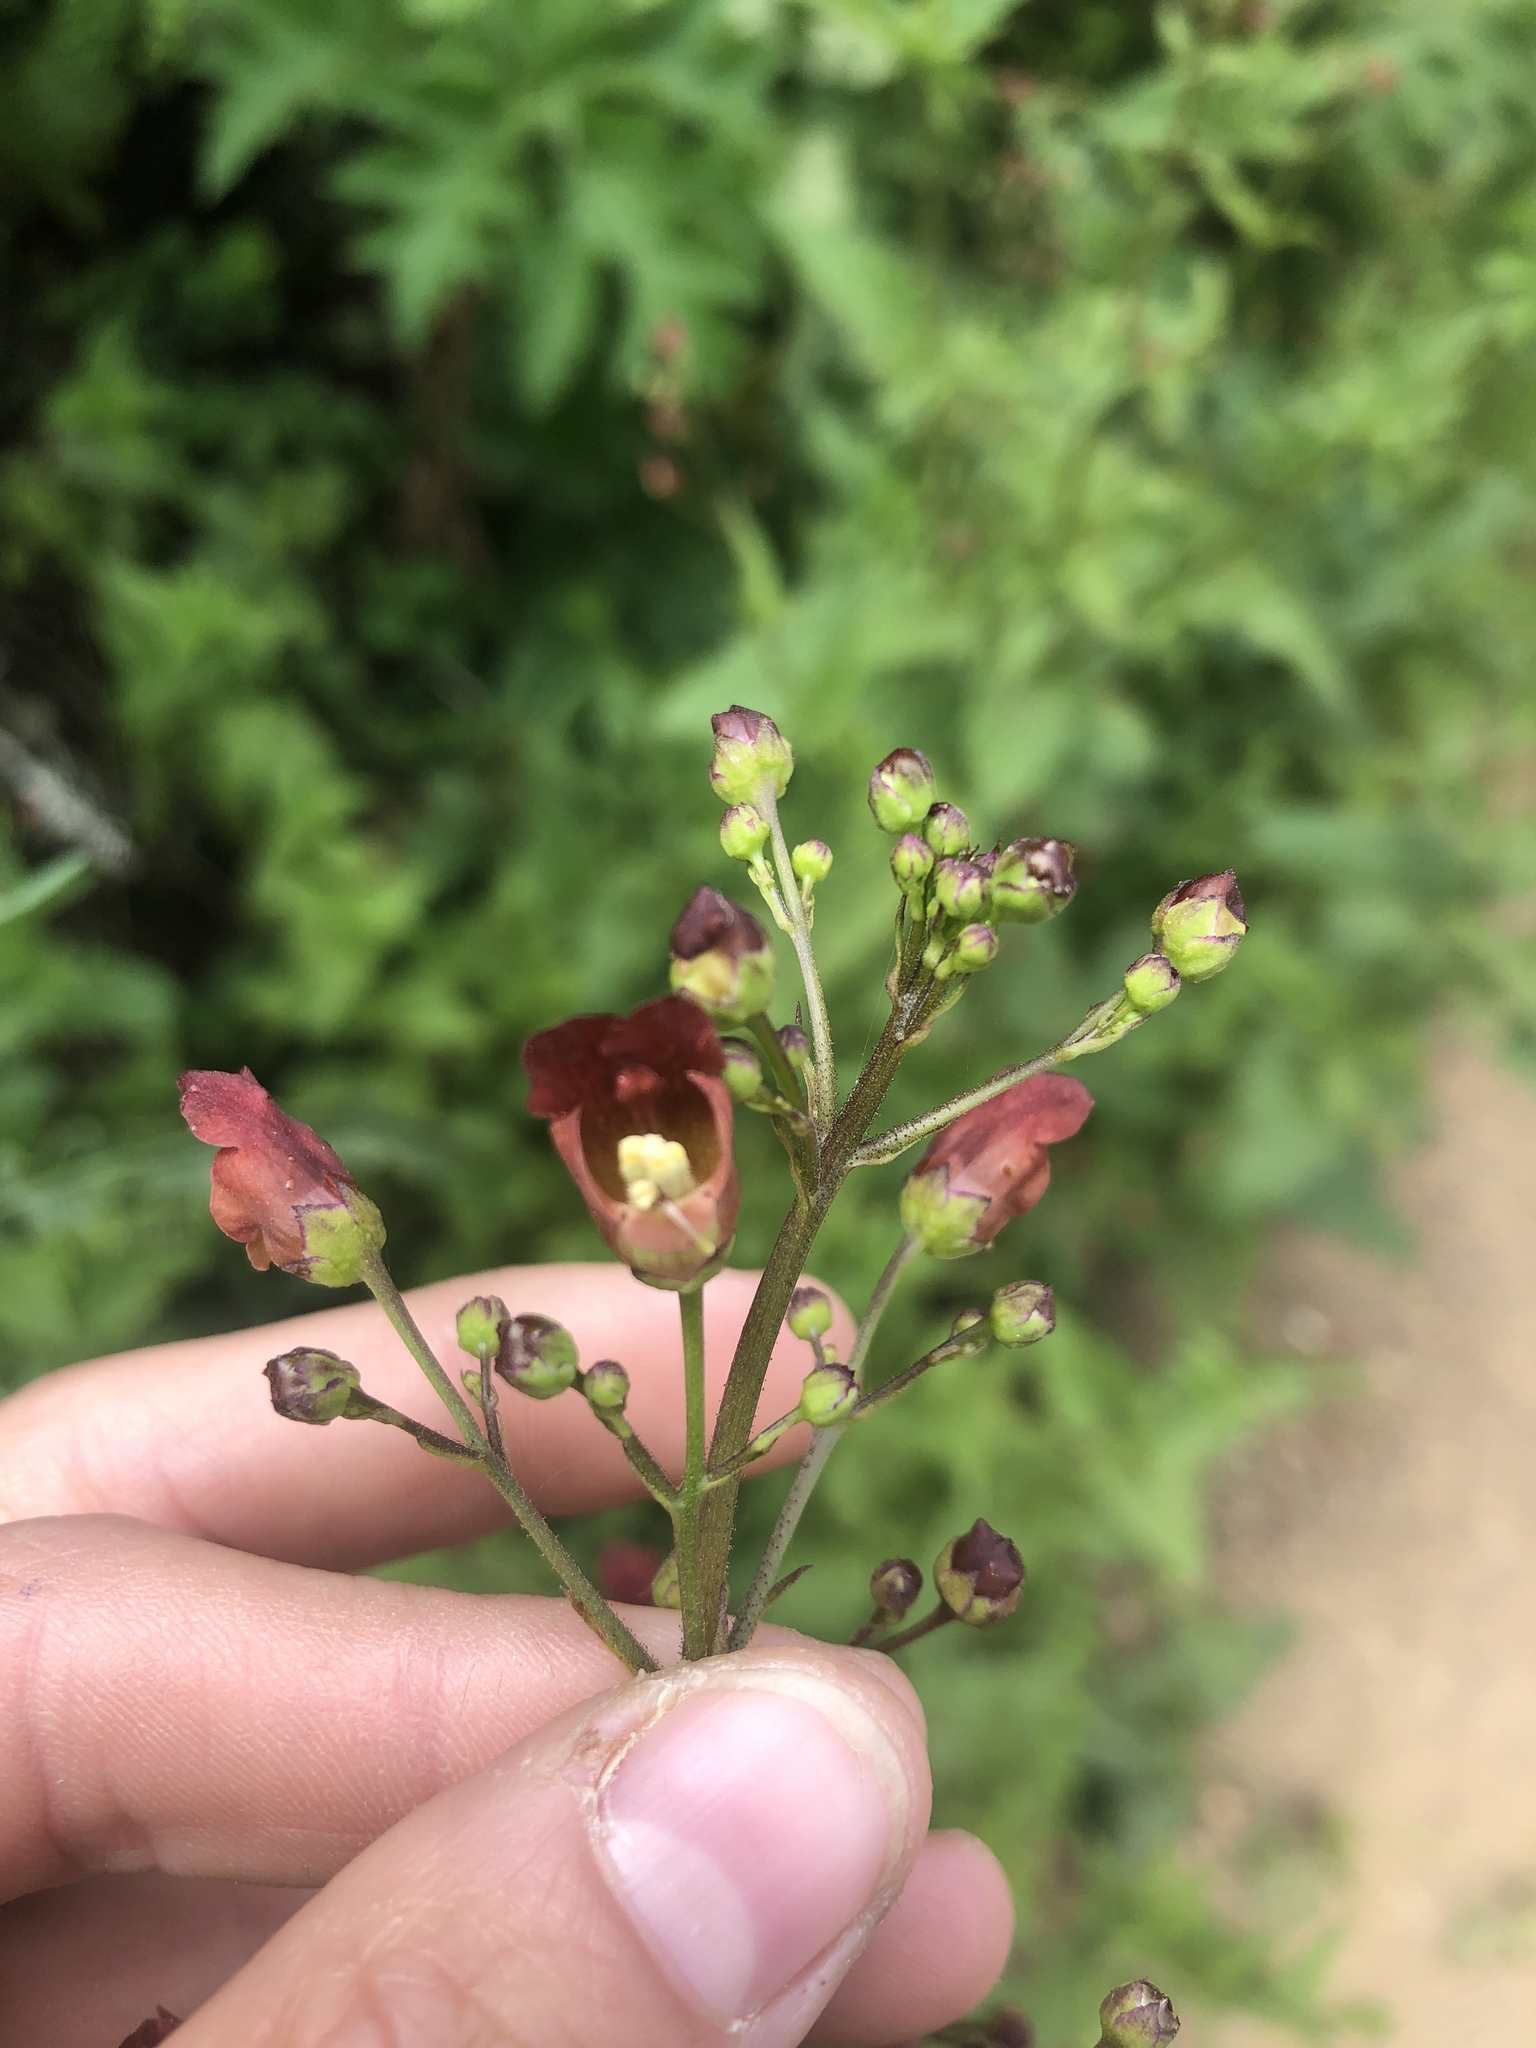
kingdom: Plantae
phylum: Tracheophyta
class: Magnoliopsida
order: Lamiales
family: Scrophulariaceae
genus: Scrophularia
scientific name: Scrophularia californica
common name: California figwort
